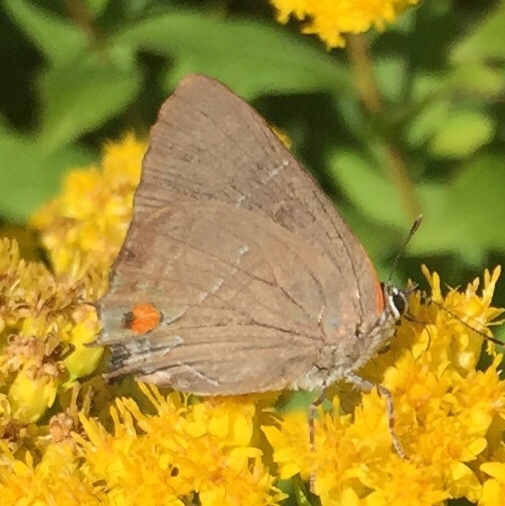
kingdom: Animalia
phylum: Arthropoda
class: Insecta
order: Lepidoptera
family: Lycaenidae
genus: Parrhasius
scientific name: Parrhasius m-album
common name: White m hairstreak
